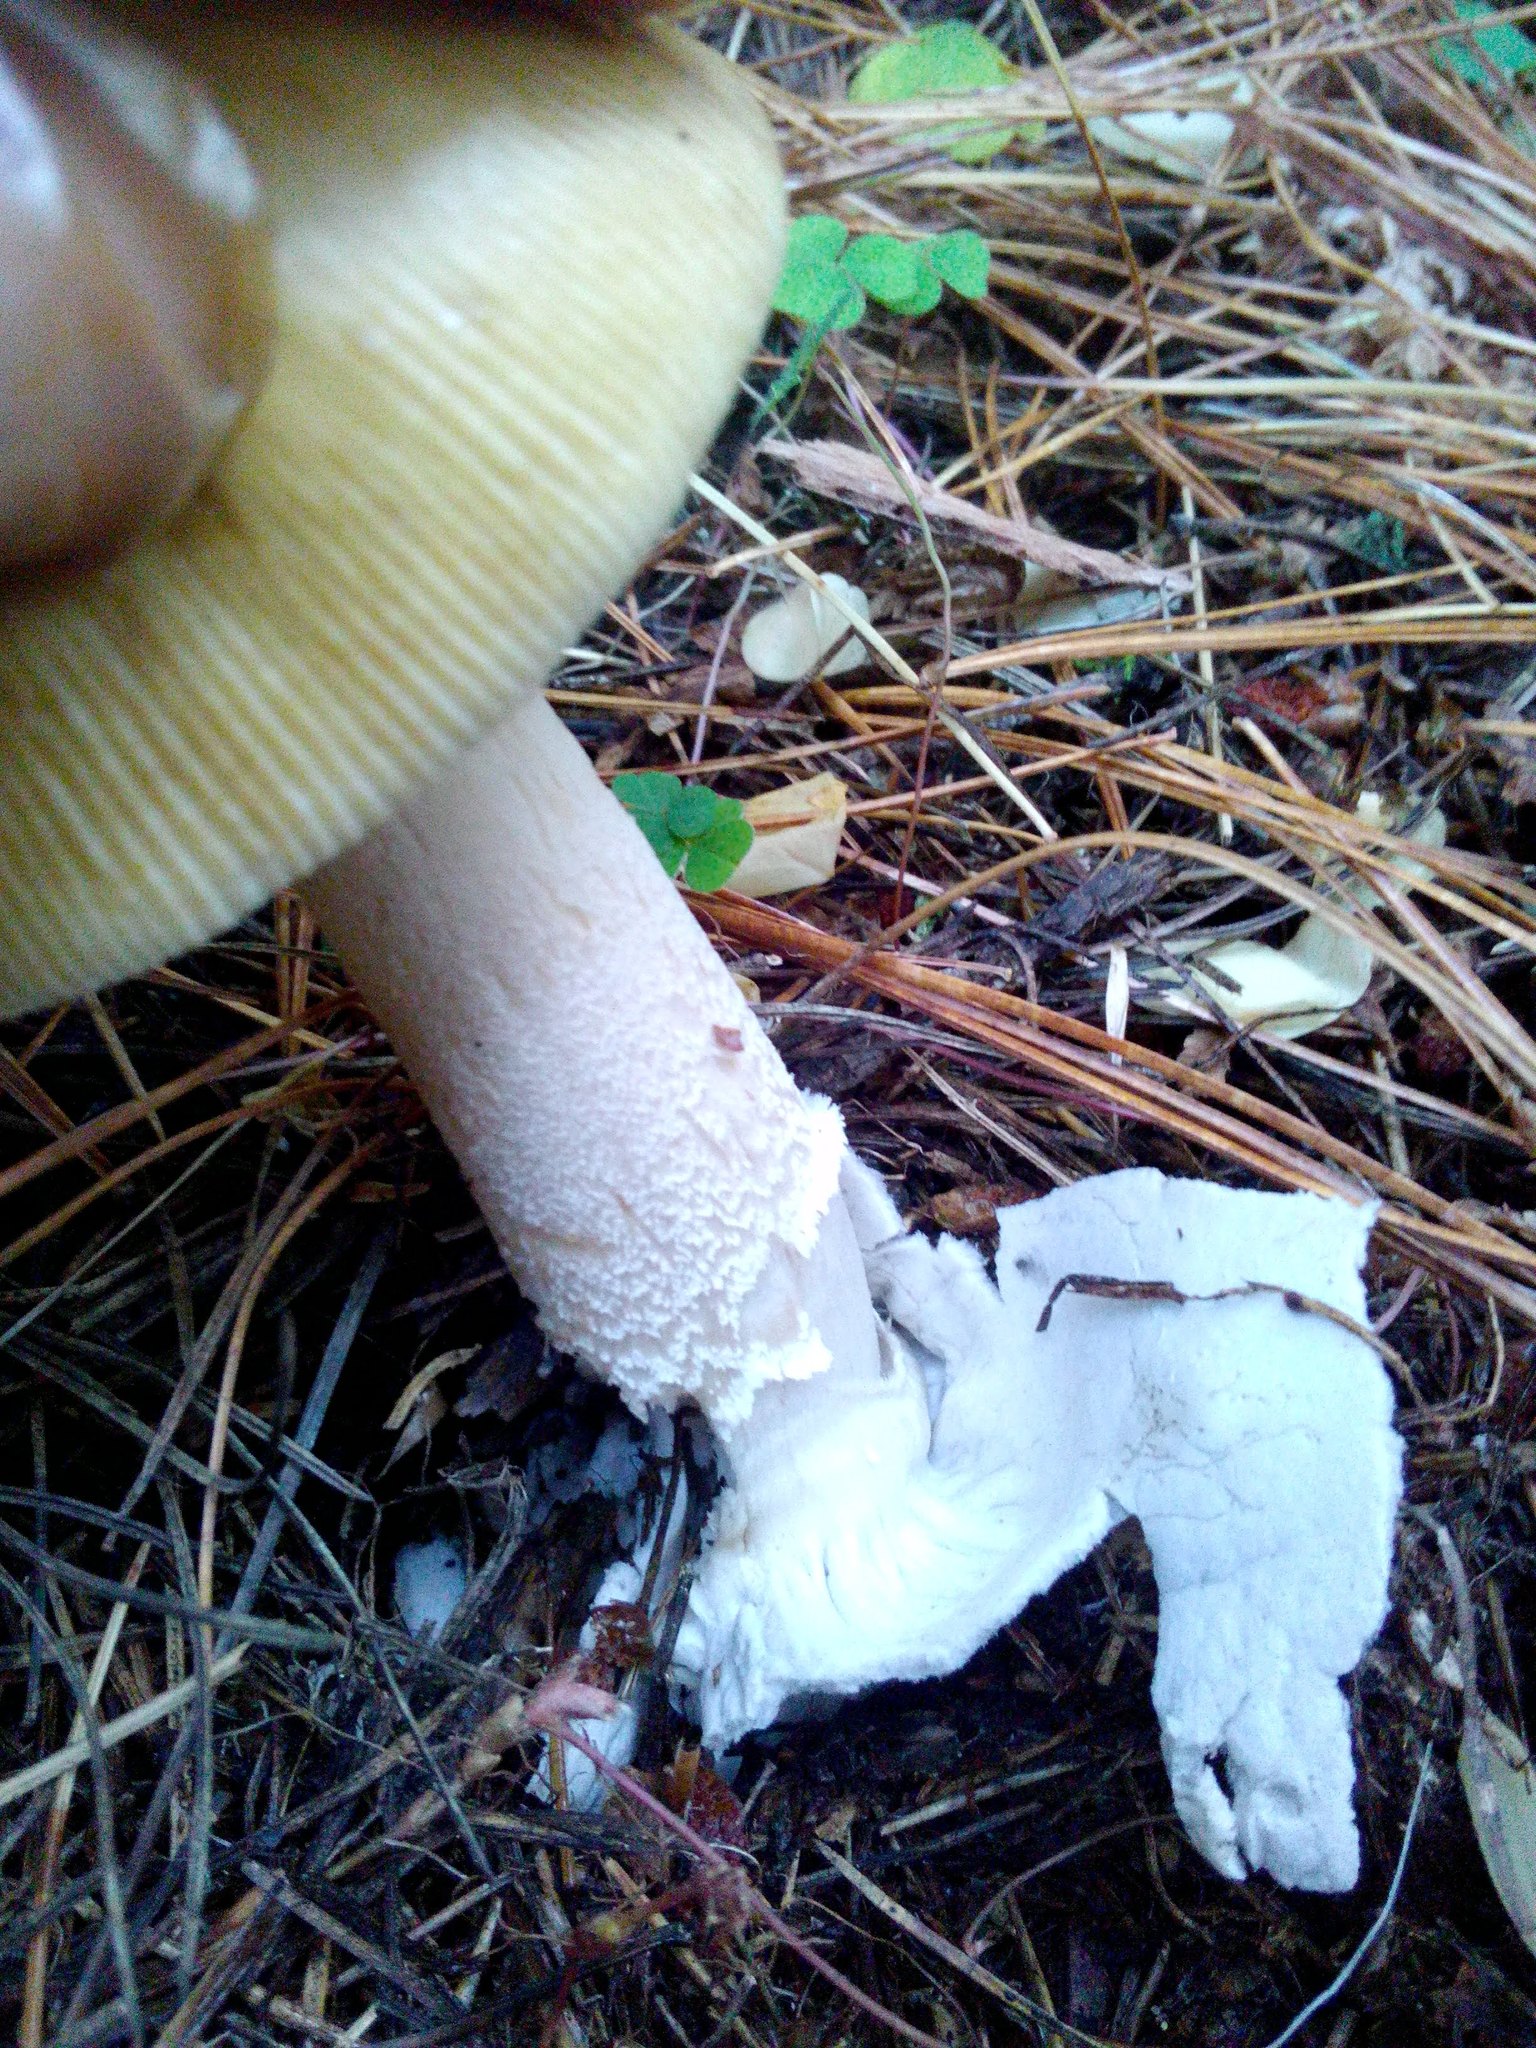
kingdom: Fungi
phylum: Basidiomycota
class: Agaricomycetes
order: Agaricales
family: Amanitaceae
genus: Amanita
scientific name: Amanita fulva
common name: Tawny grisette
